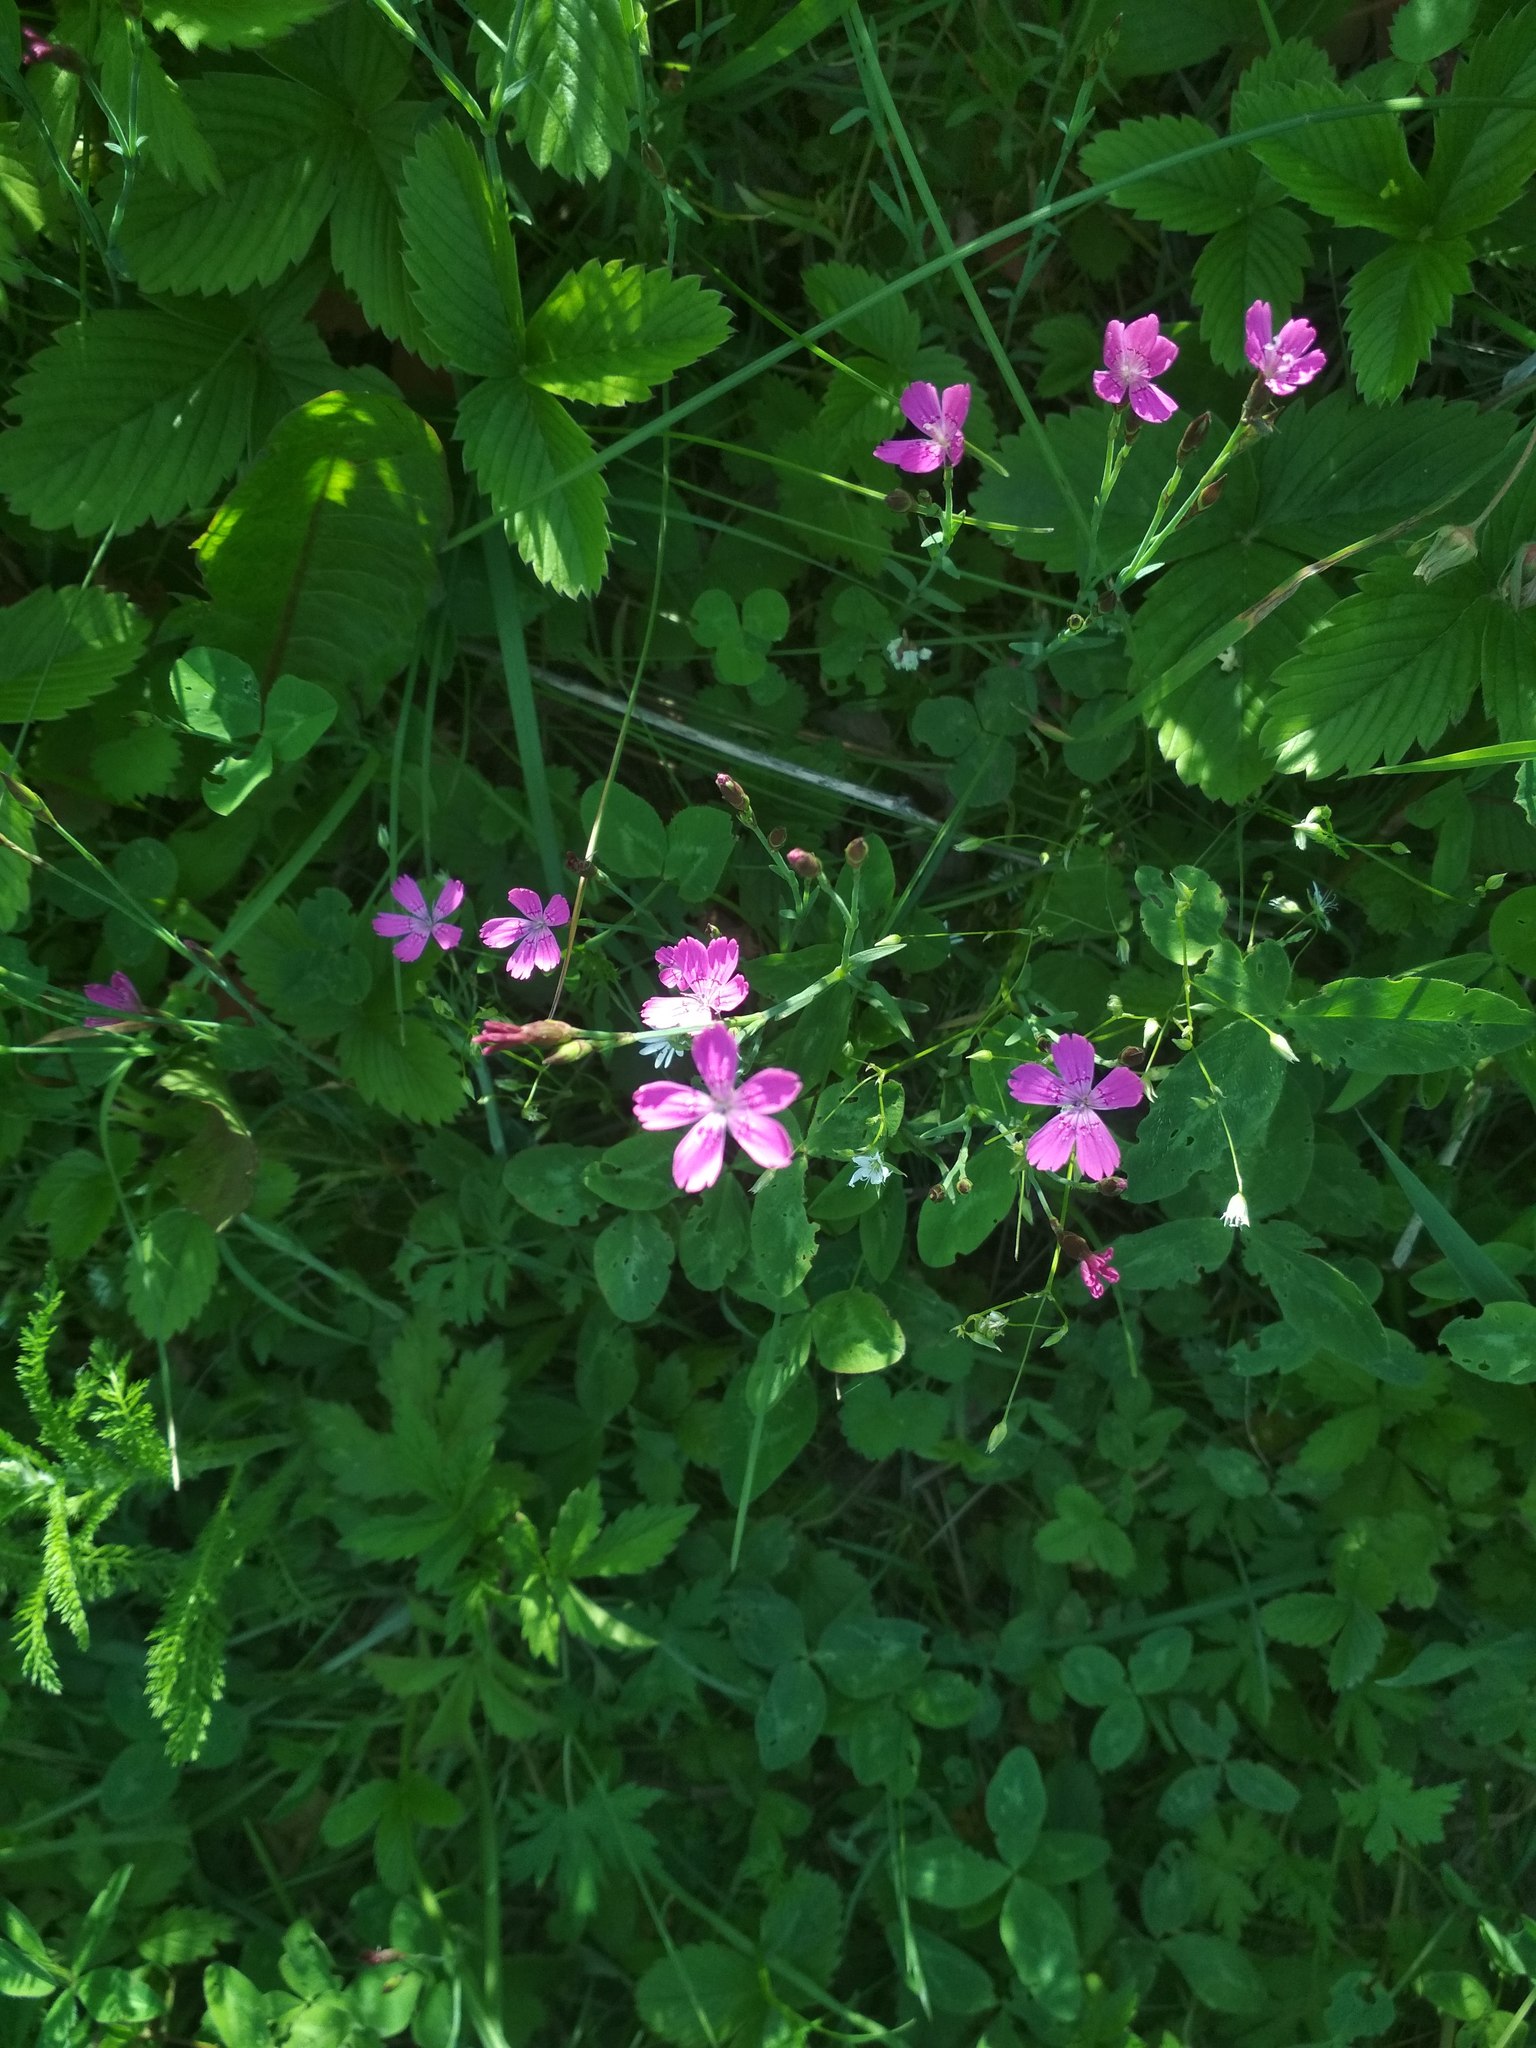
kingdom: Plantae
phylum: Tracheophyta
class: Magnoliopsida
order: Caryophyllales
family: Caryophyllaceae
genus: Dianthus
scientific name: Dianthus deltoides
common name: Maiden pink
